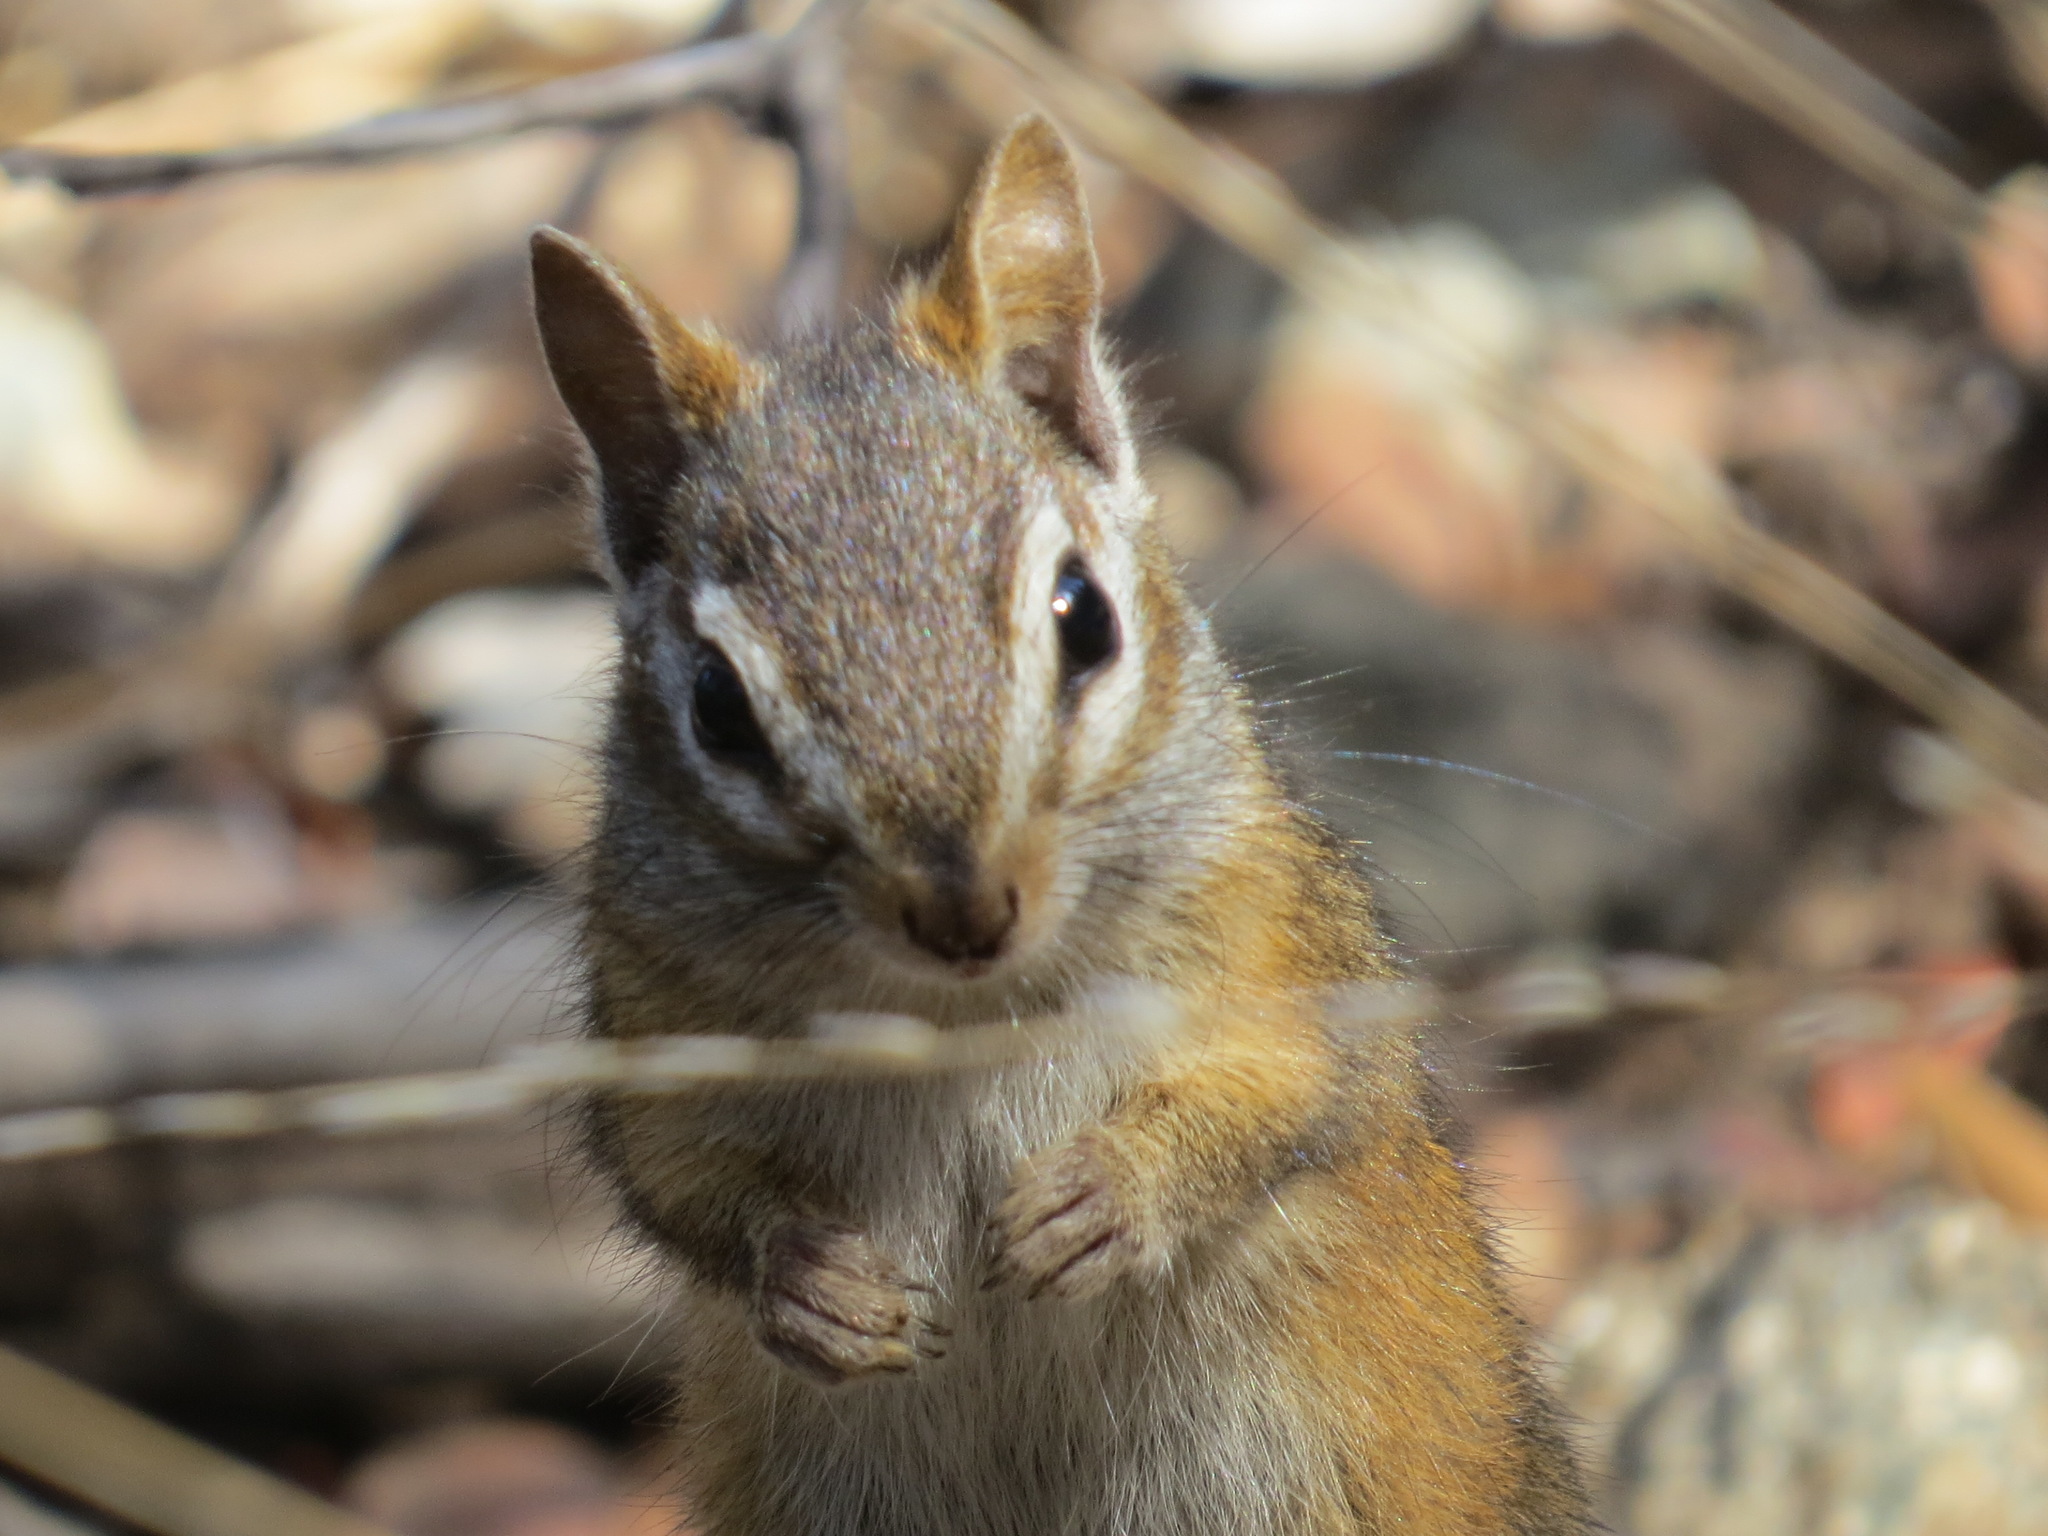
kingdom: Animalia
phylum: Chordata
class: Mammalia
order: Rodentia
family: Sciuridae
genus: Tamias
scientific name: Tamias merriami
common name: Merriam's chipmunk
